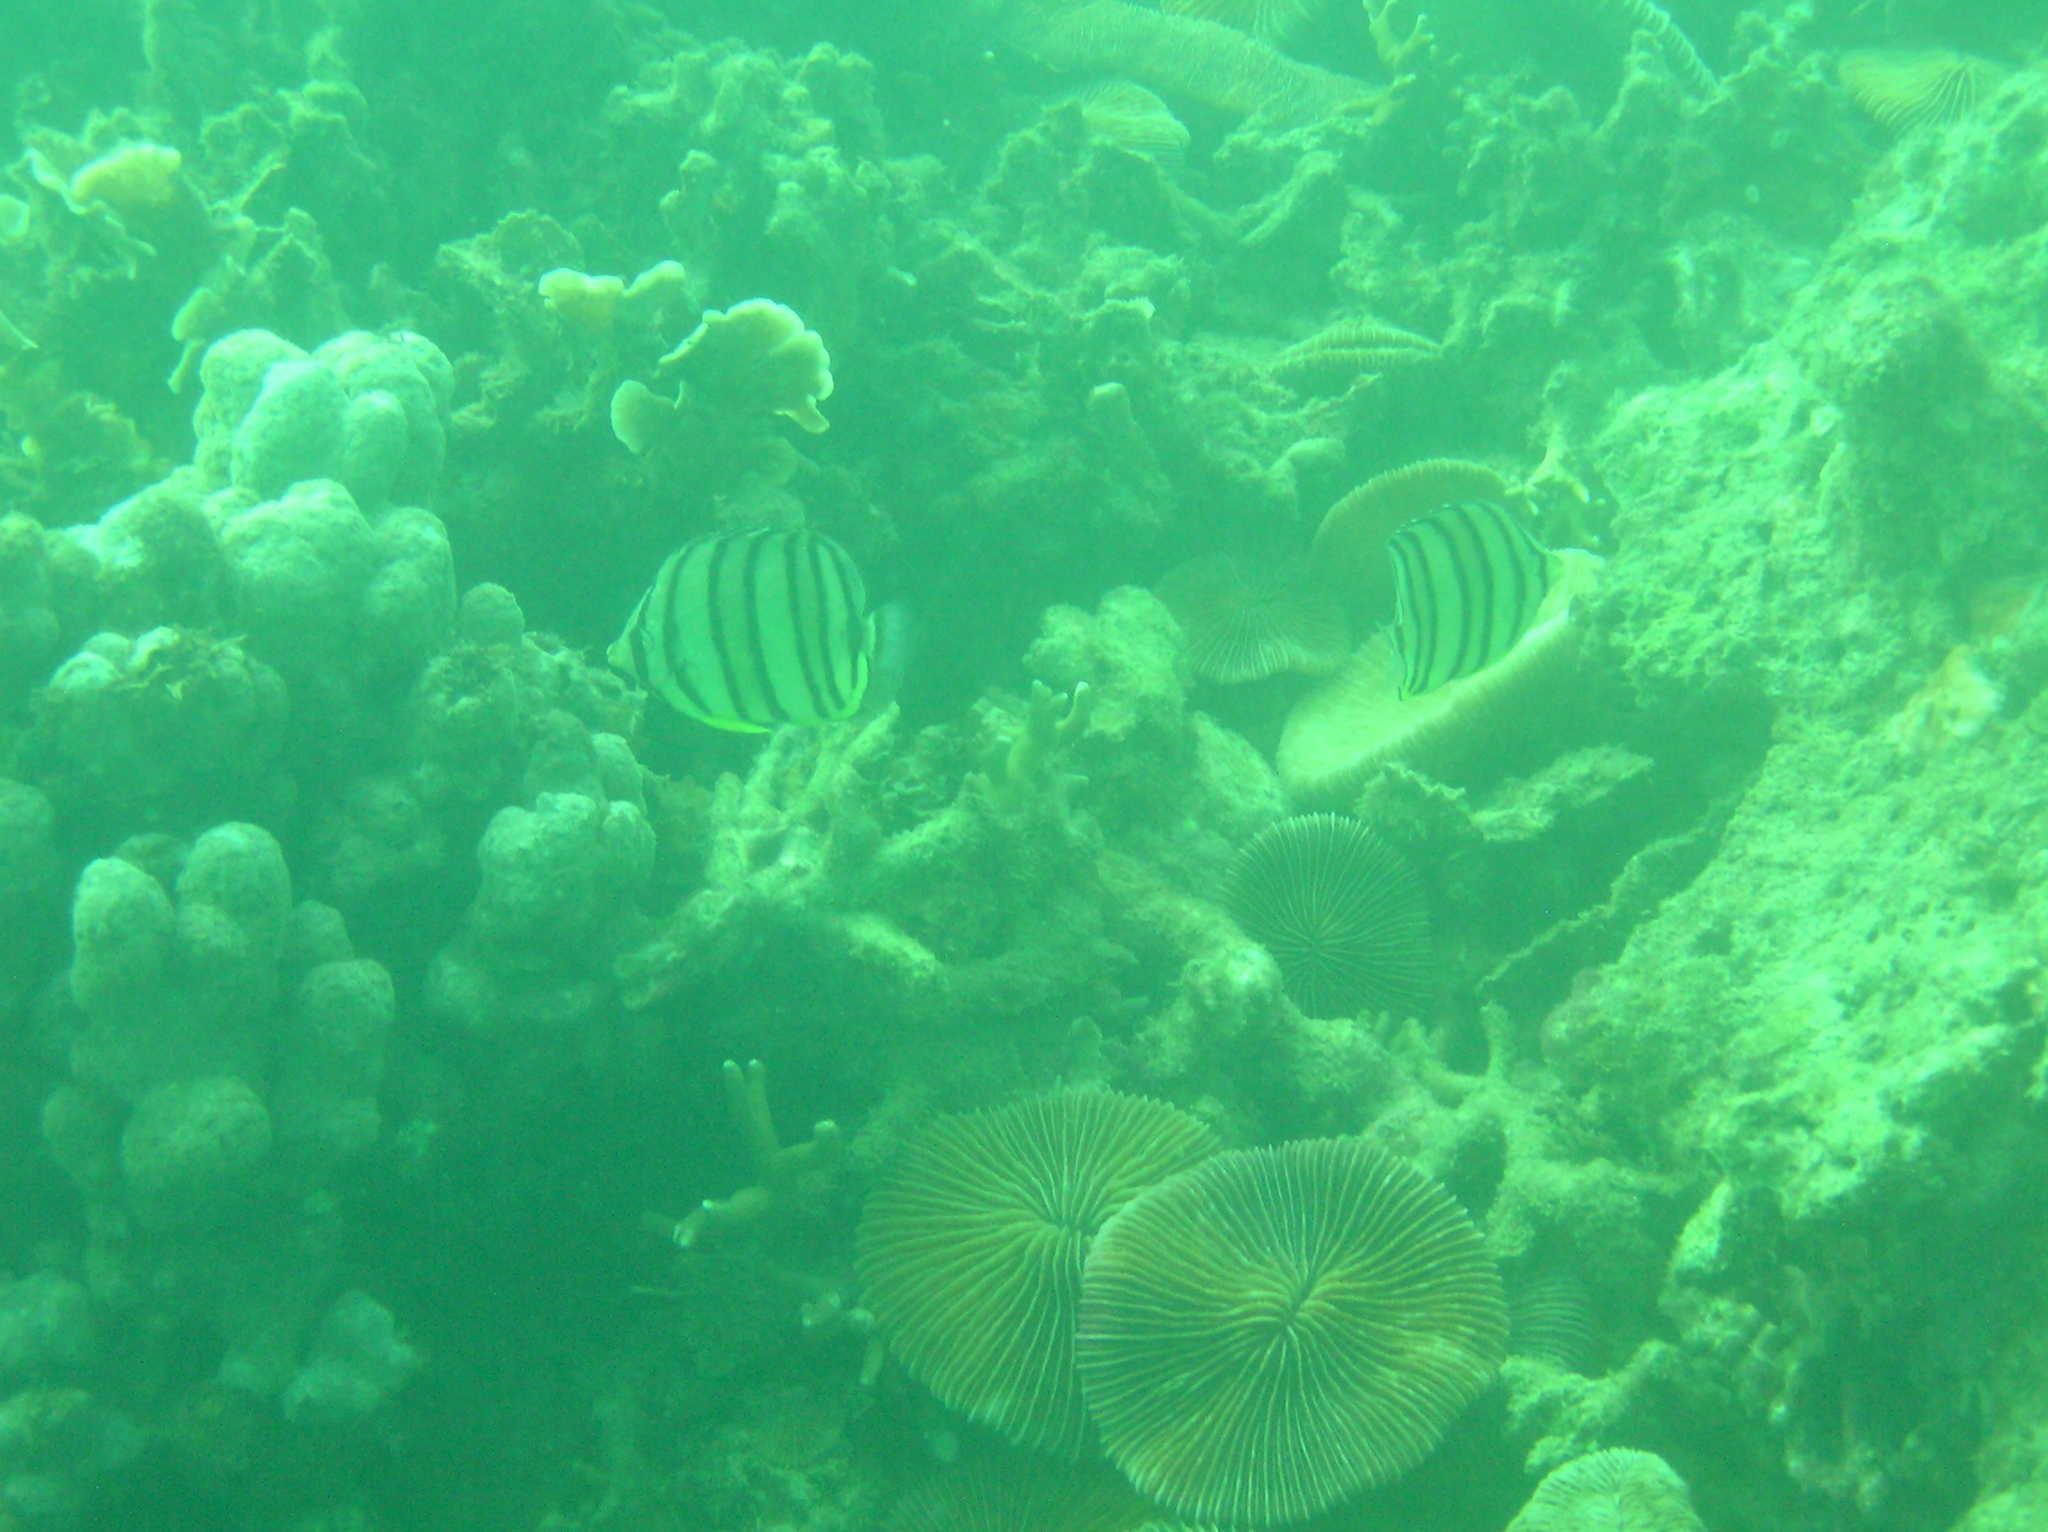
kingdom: Animalia
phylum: Chordata
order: Perciformes
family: Chaetodontidae
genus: Chaetodon
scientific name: Chaetodon octofasciatus
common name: Eightband butterflyfish
